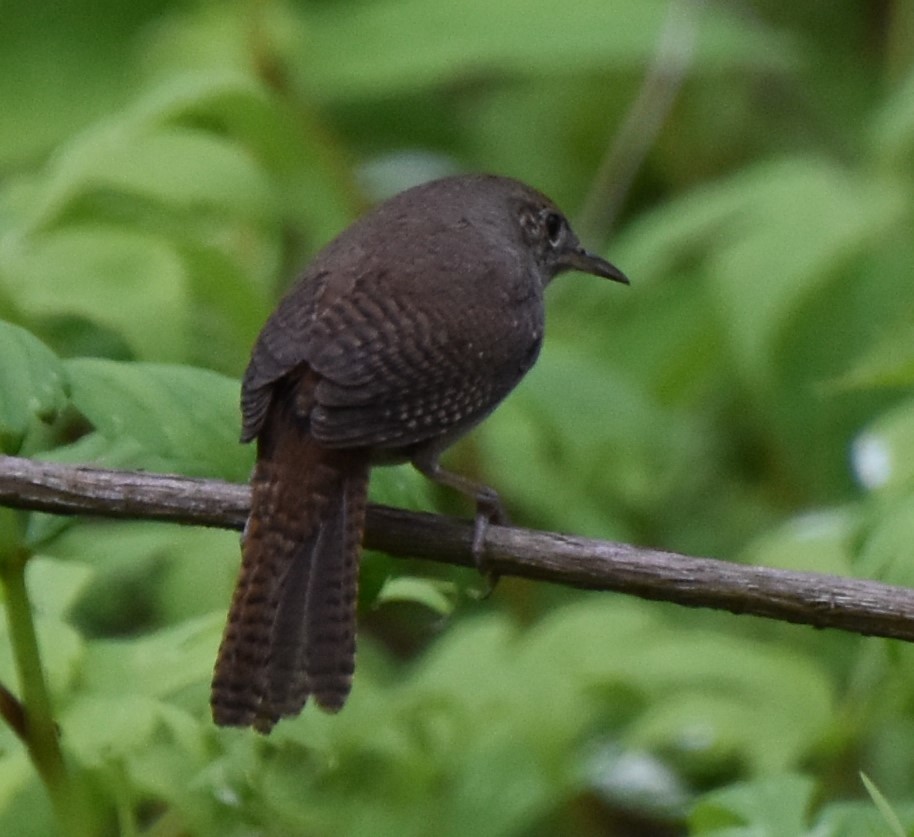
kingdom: Animalia
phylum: Chordata
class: Aves
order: Passeriformes
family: Troglodytidae
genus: Troglodytes
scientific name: Troglodytes aedon
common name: House wren
